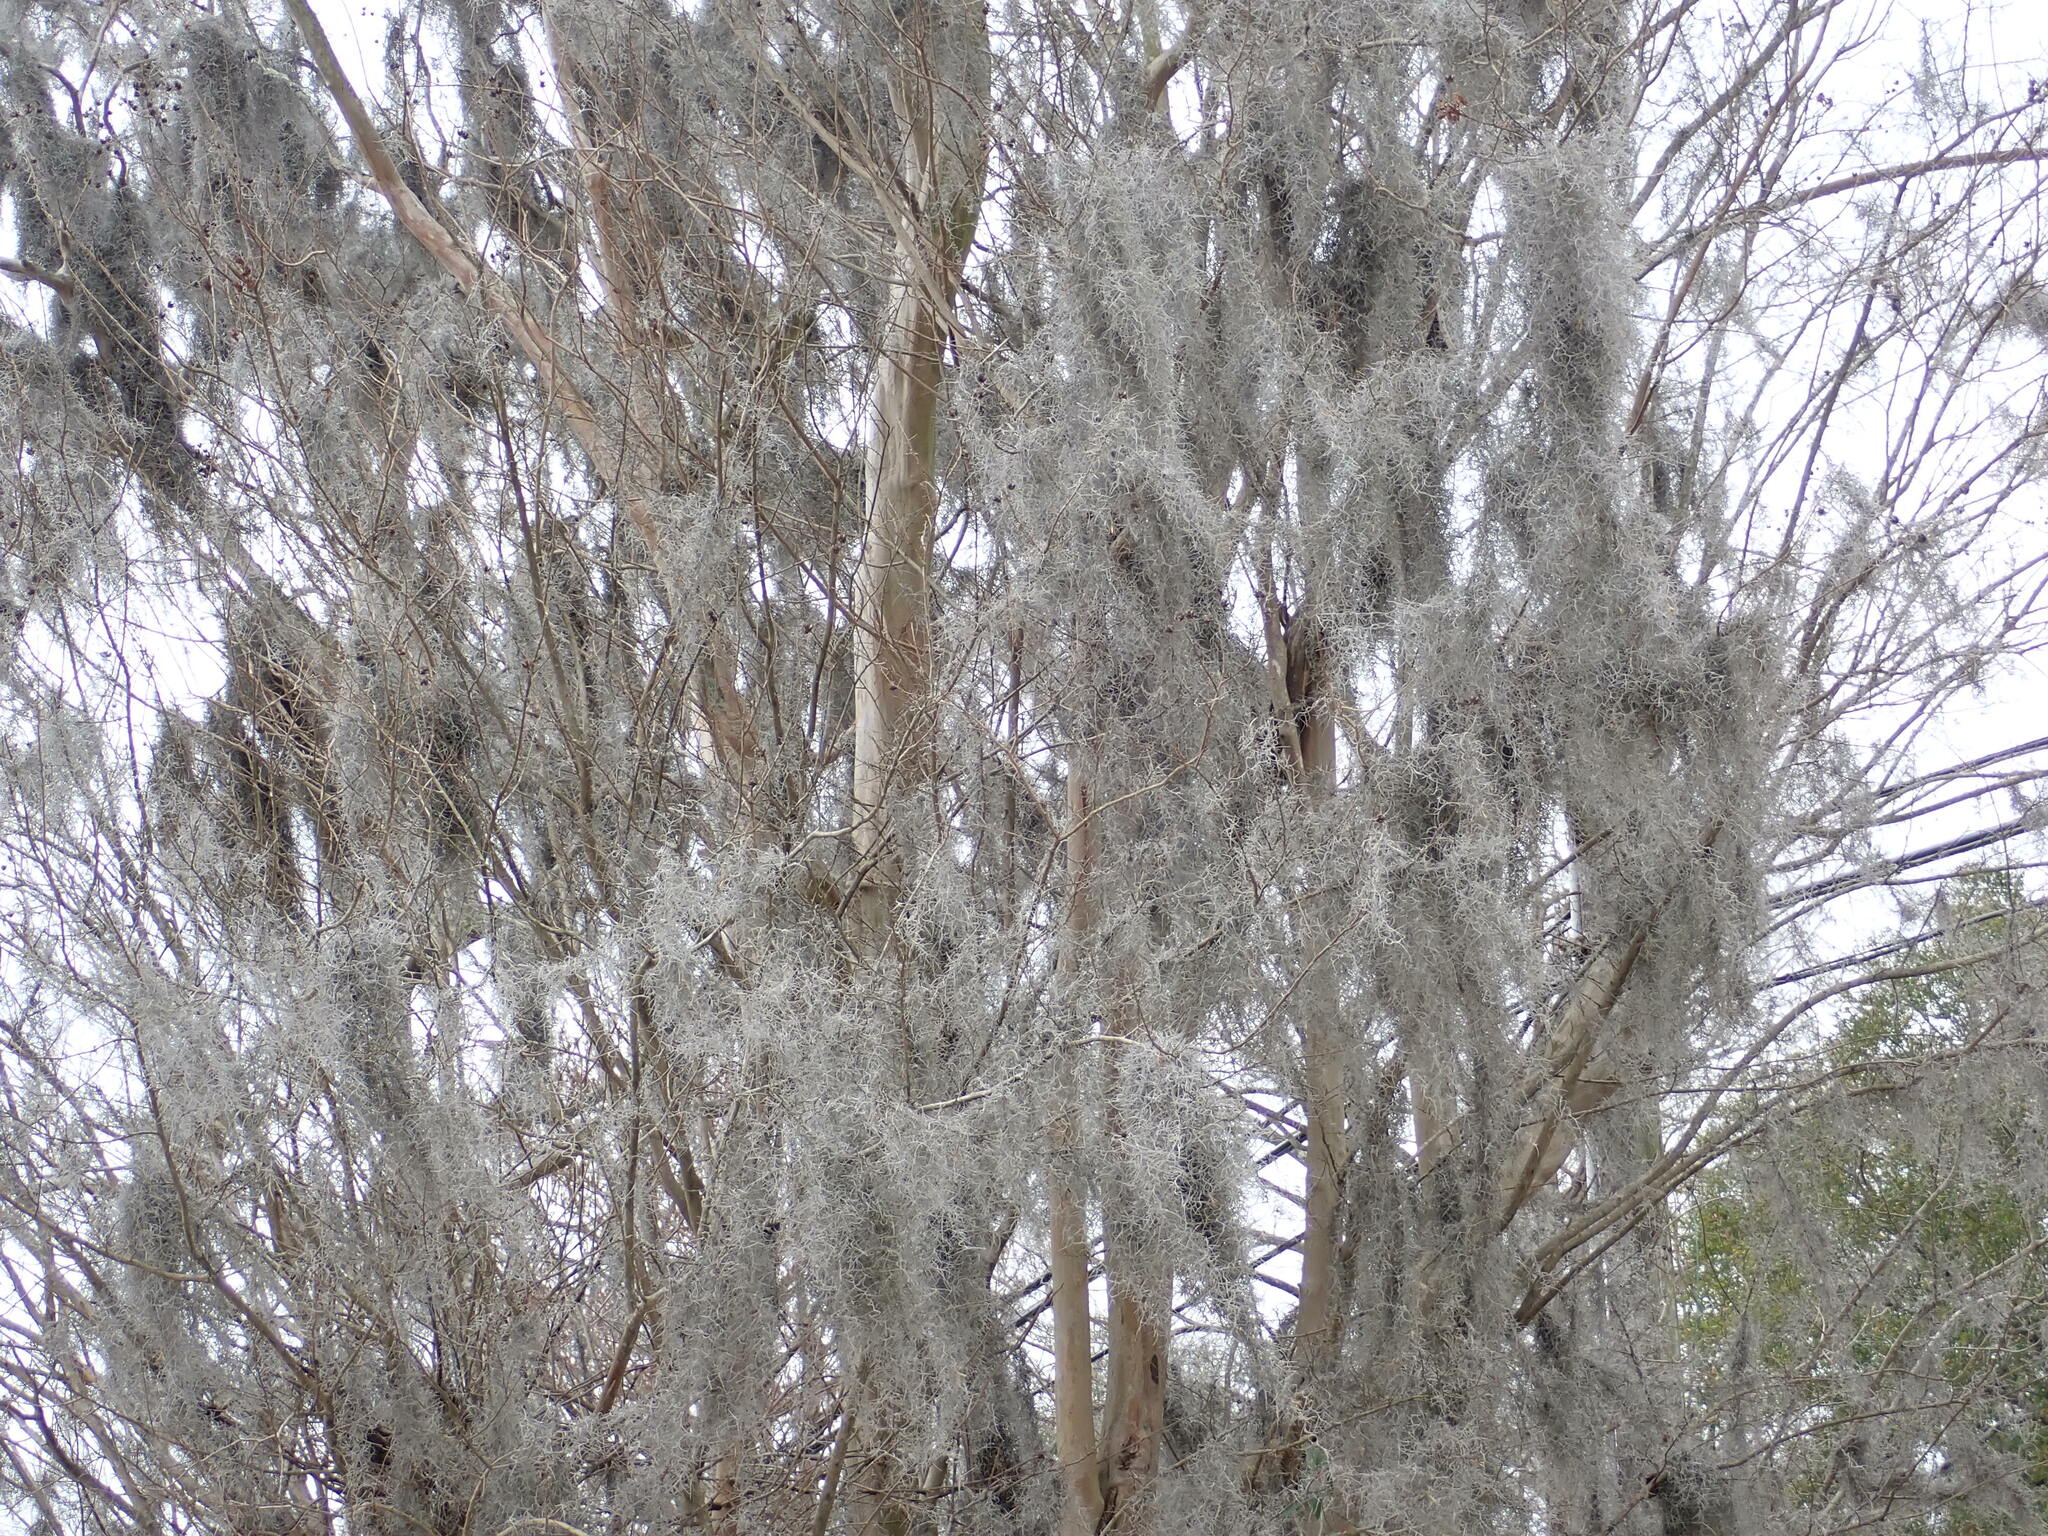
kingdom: Plantae
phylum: Tracheophyta
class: Liliopsida
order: Poales
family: Bromeliaceae
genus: Tillandsia
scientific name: Tillandsia usneoides
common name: Spanish moss
